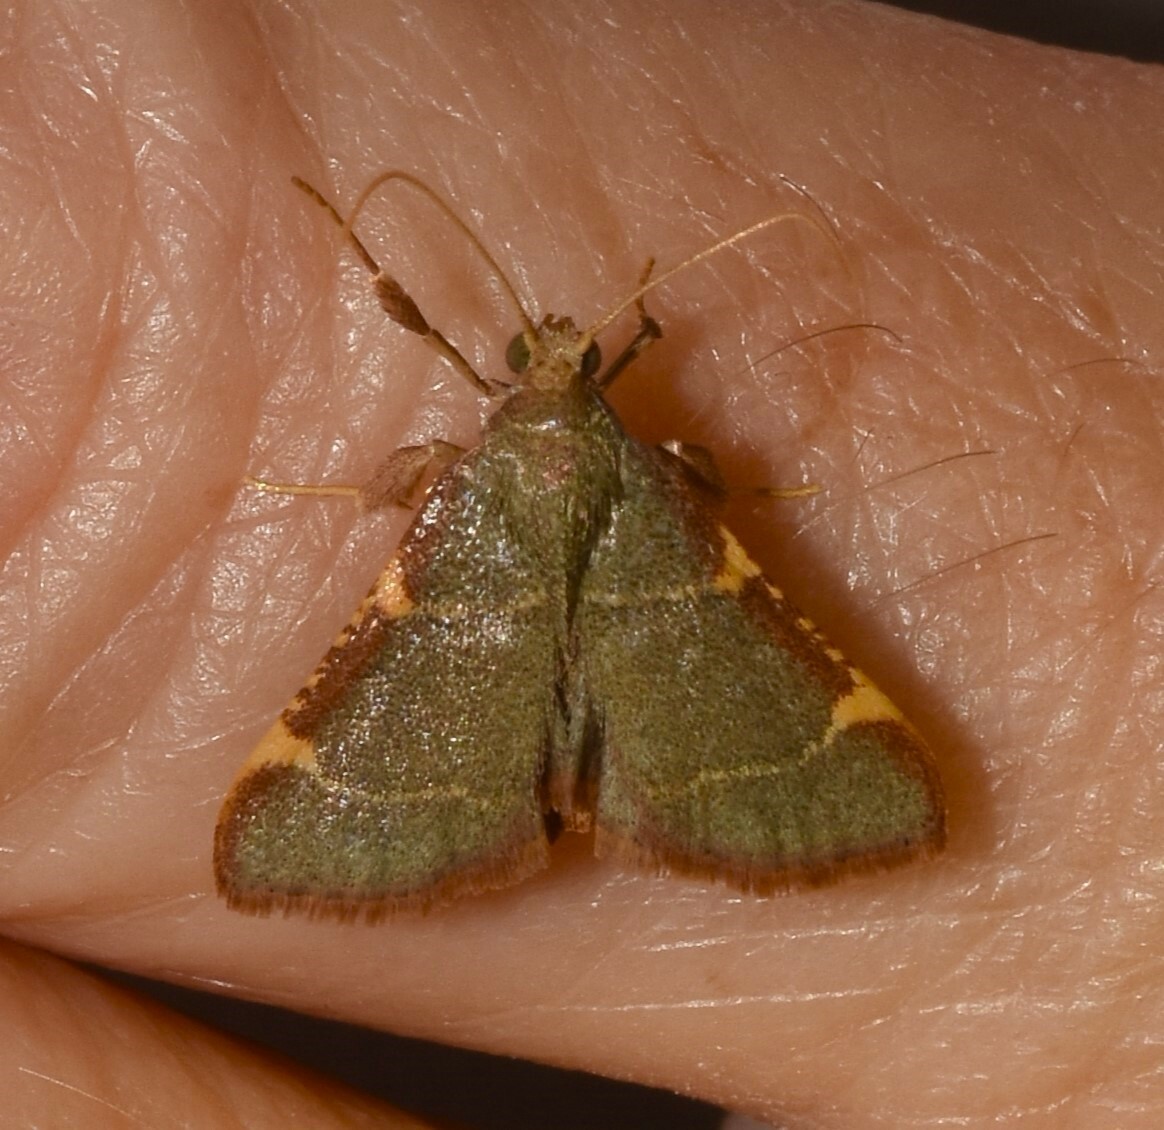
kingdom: Animalia
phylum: Arthropoda
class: Insecta
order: Lepidoptera
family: Pyralidae
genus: Hypsopygia
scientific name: Hypsopygia binodulalis
